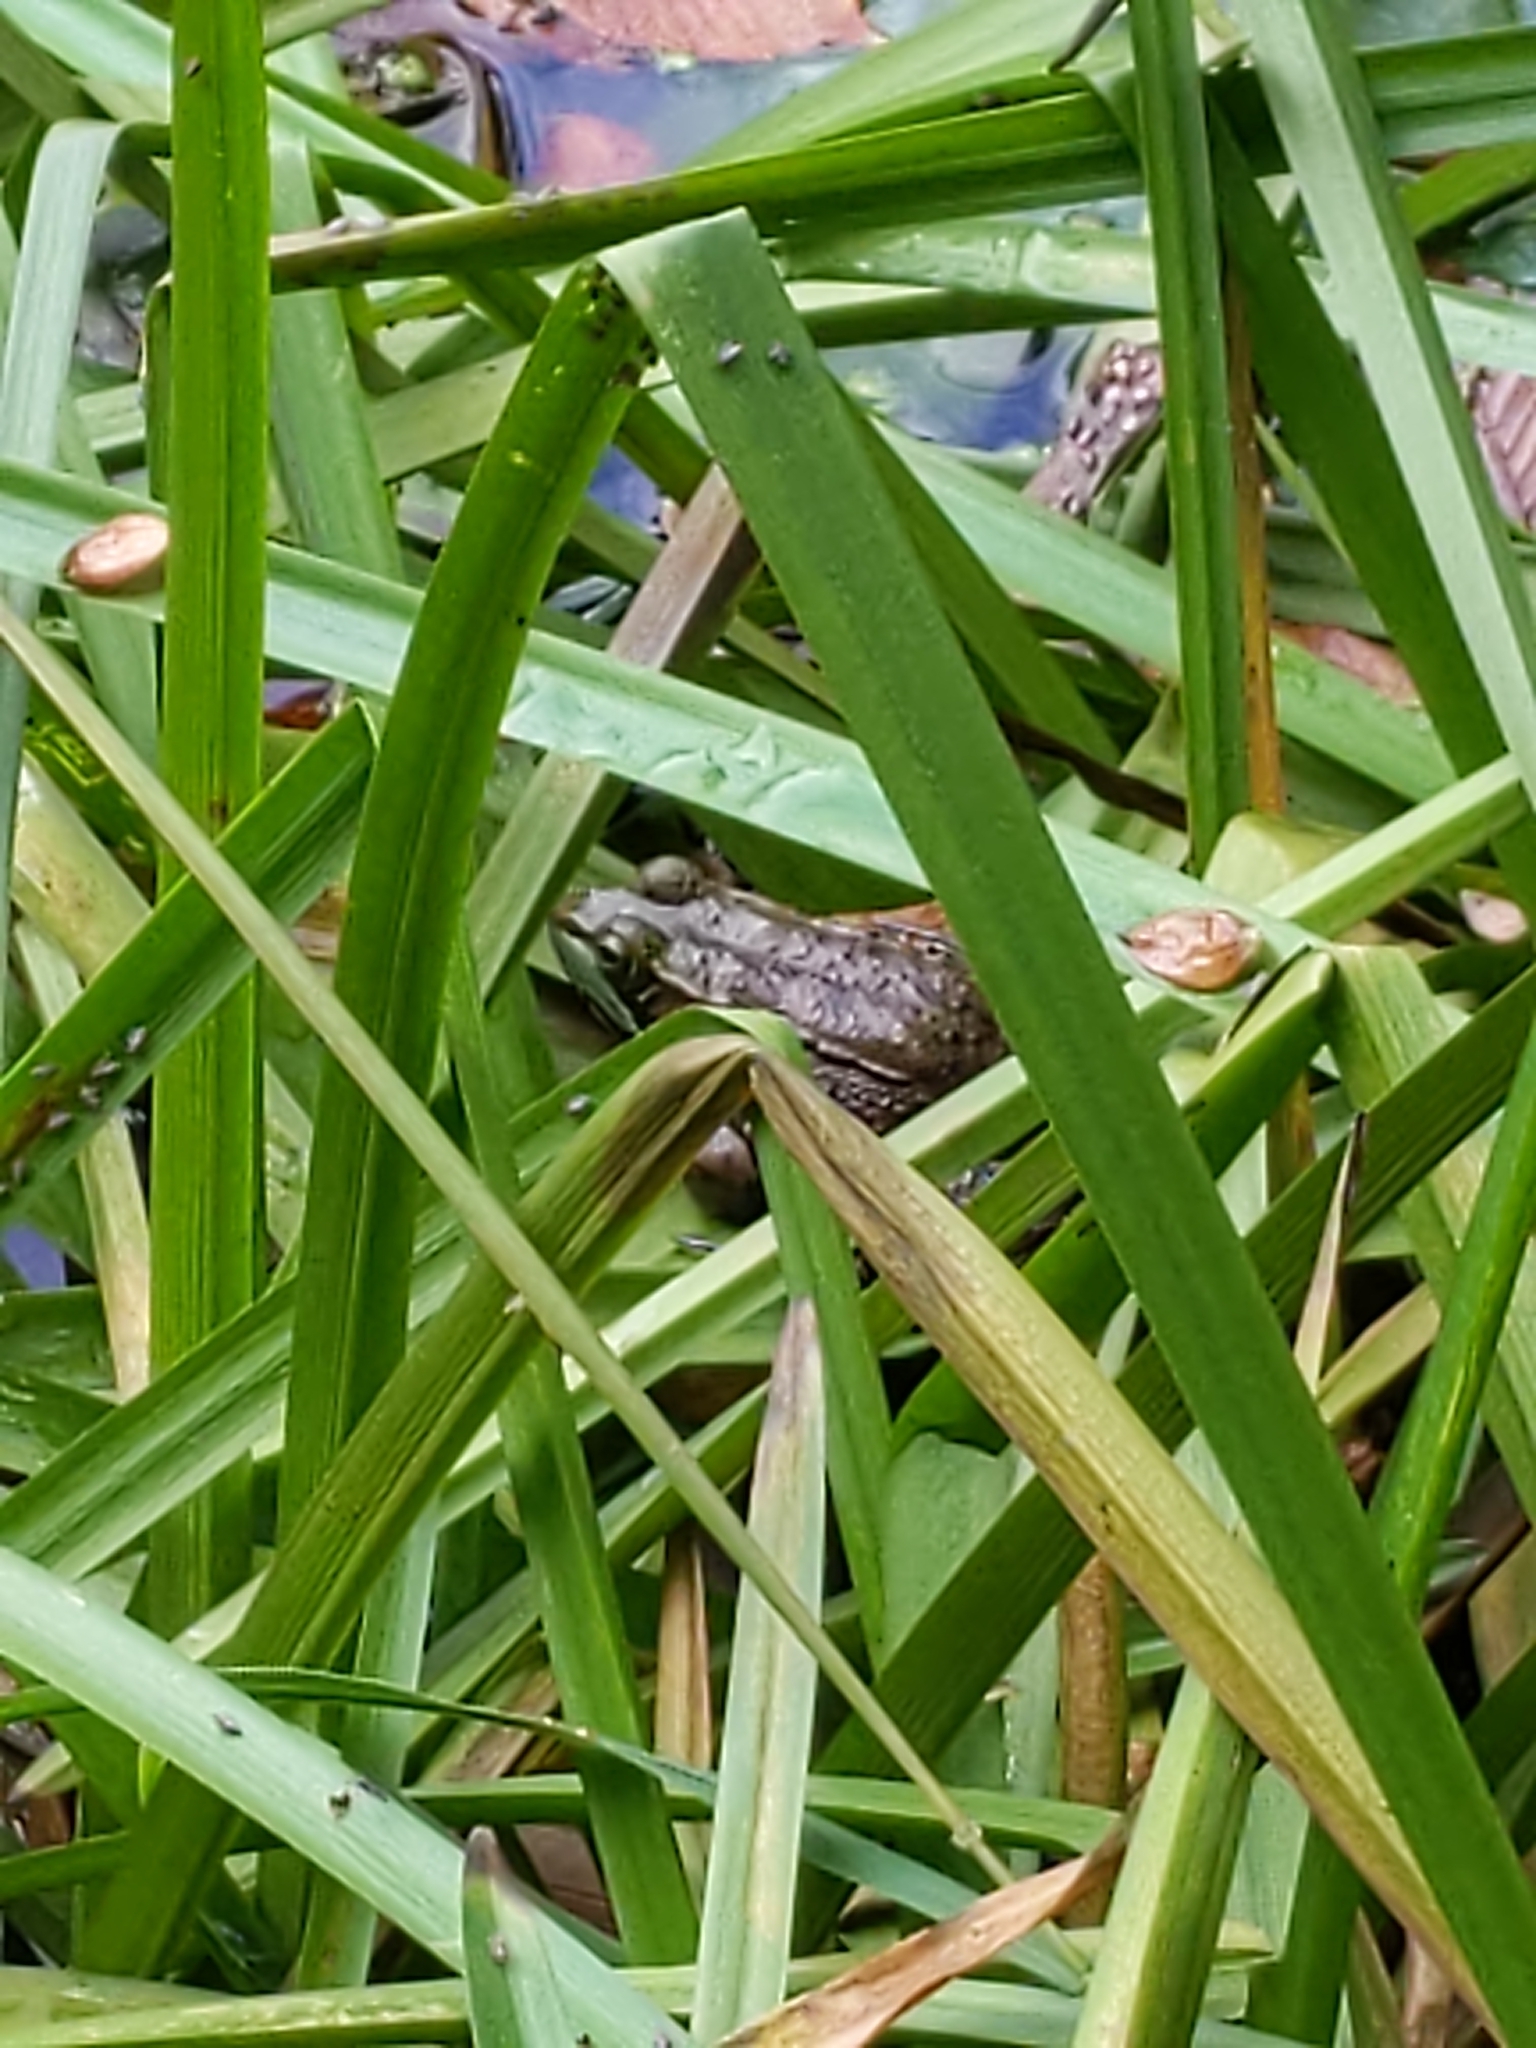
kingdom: Animalia
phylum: Chordata
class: Amphibia
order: Anura
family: Ranidae
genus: Lithobates
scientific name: Lithobates clamitans
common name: Green frog
